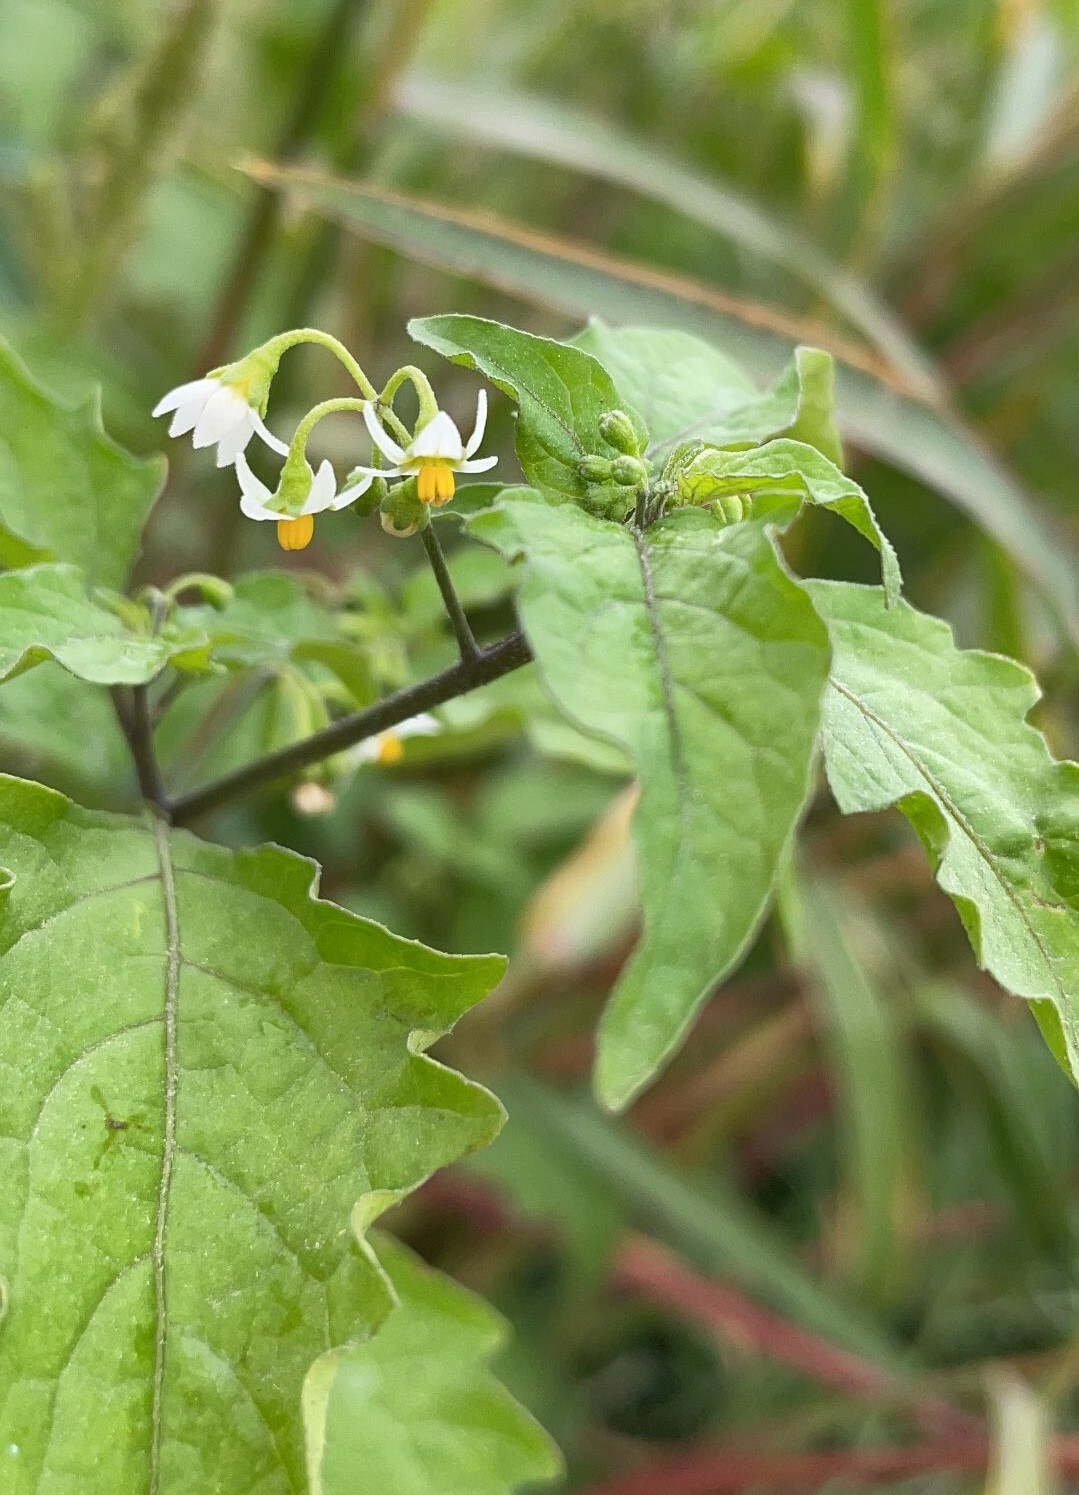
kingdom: Plantae
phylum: Tracheophyta
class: Magnoliopsida
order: Solanales
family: Solanaceae
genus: Solanum
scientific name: Solanum americanum
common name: American black nightshade
